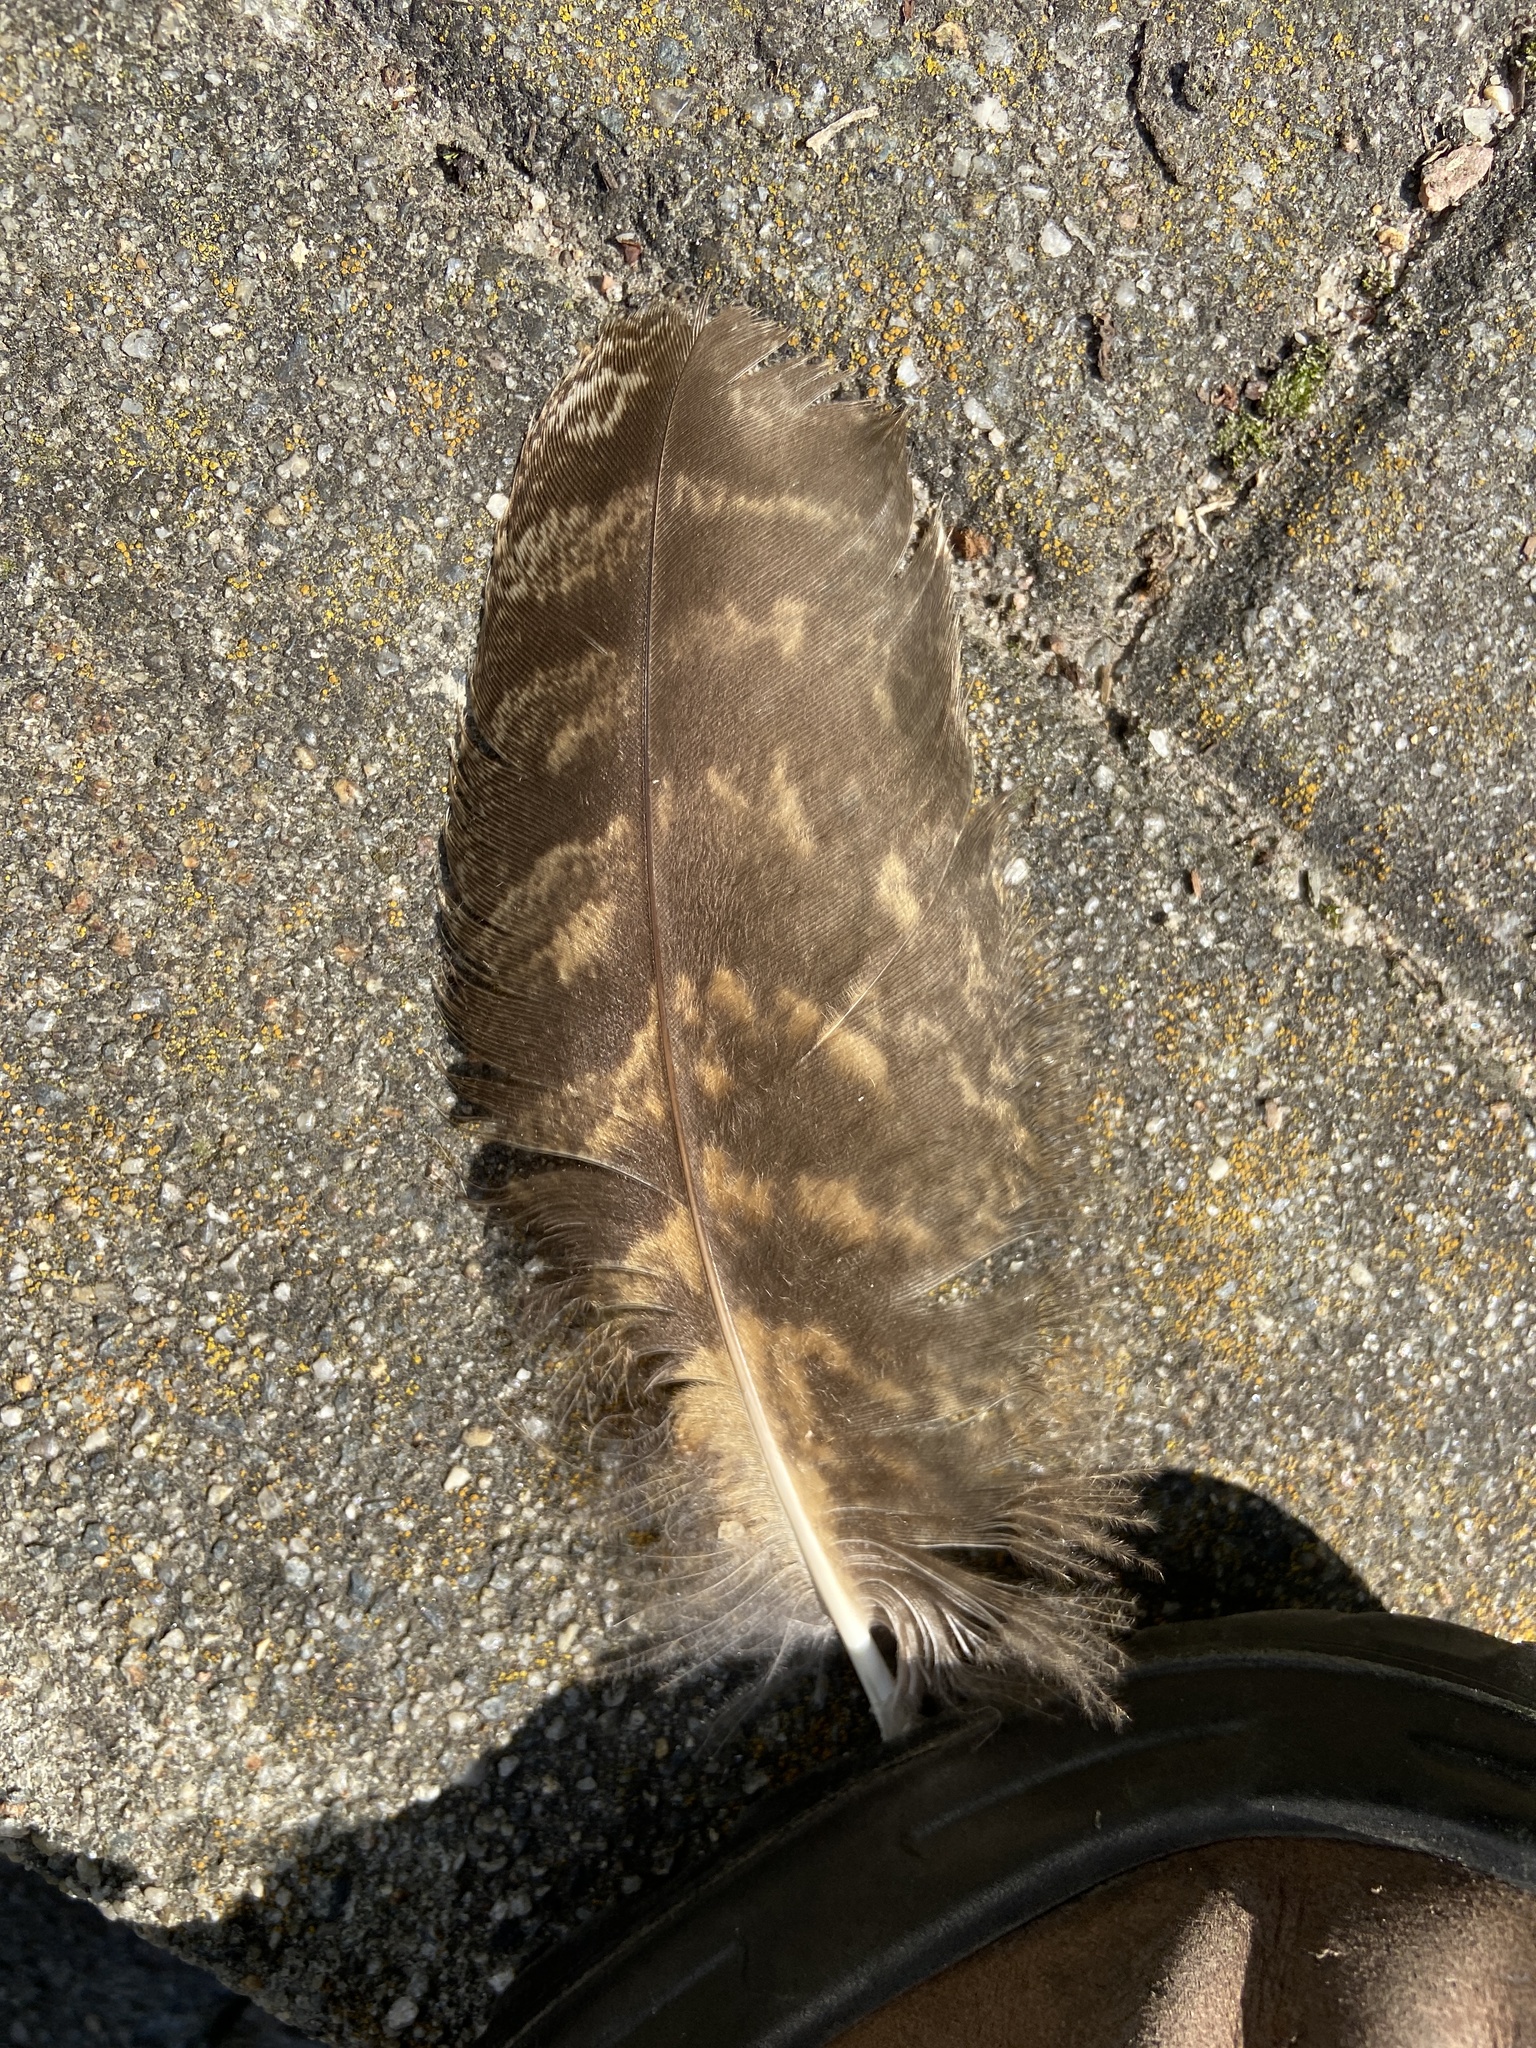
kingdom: Animalia
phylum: Chordata
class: Aves
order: Strigiformes
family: Strigidae
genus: Bubo
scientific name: Bubo bubo
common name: Eurasian eagle-owl
